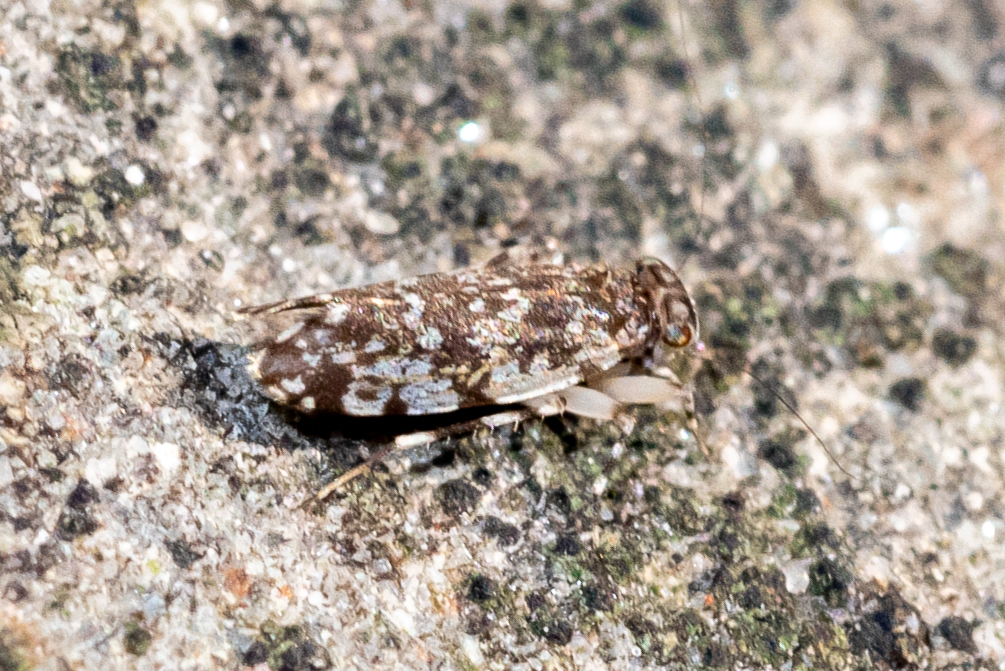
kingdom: Animalia
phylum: Arthropoda
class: Insecta
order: Psocodea
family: Amphientomidae
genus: Stimulopalpus
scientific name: Stimulopalpus japonicus
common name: Tropical bark louse
